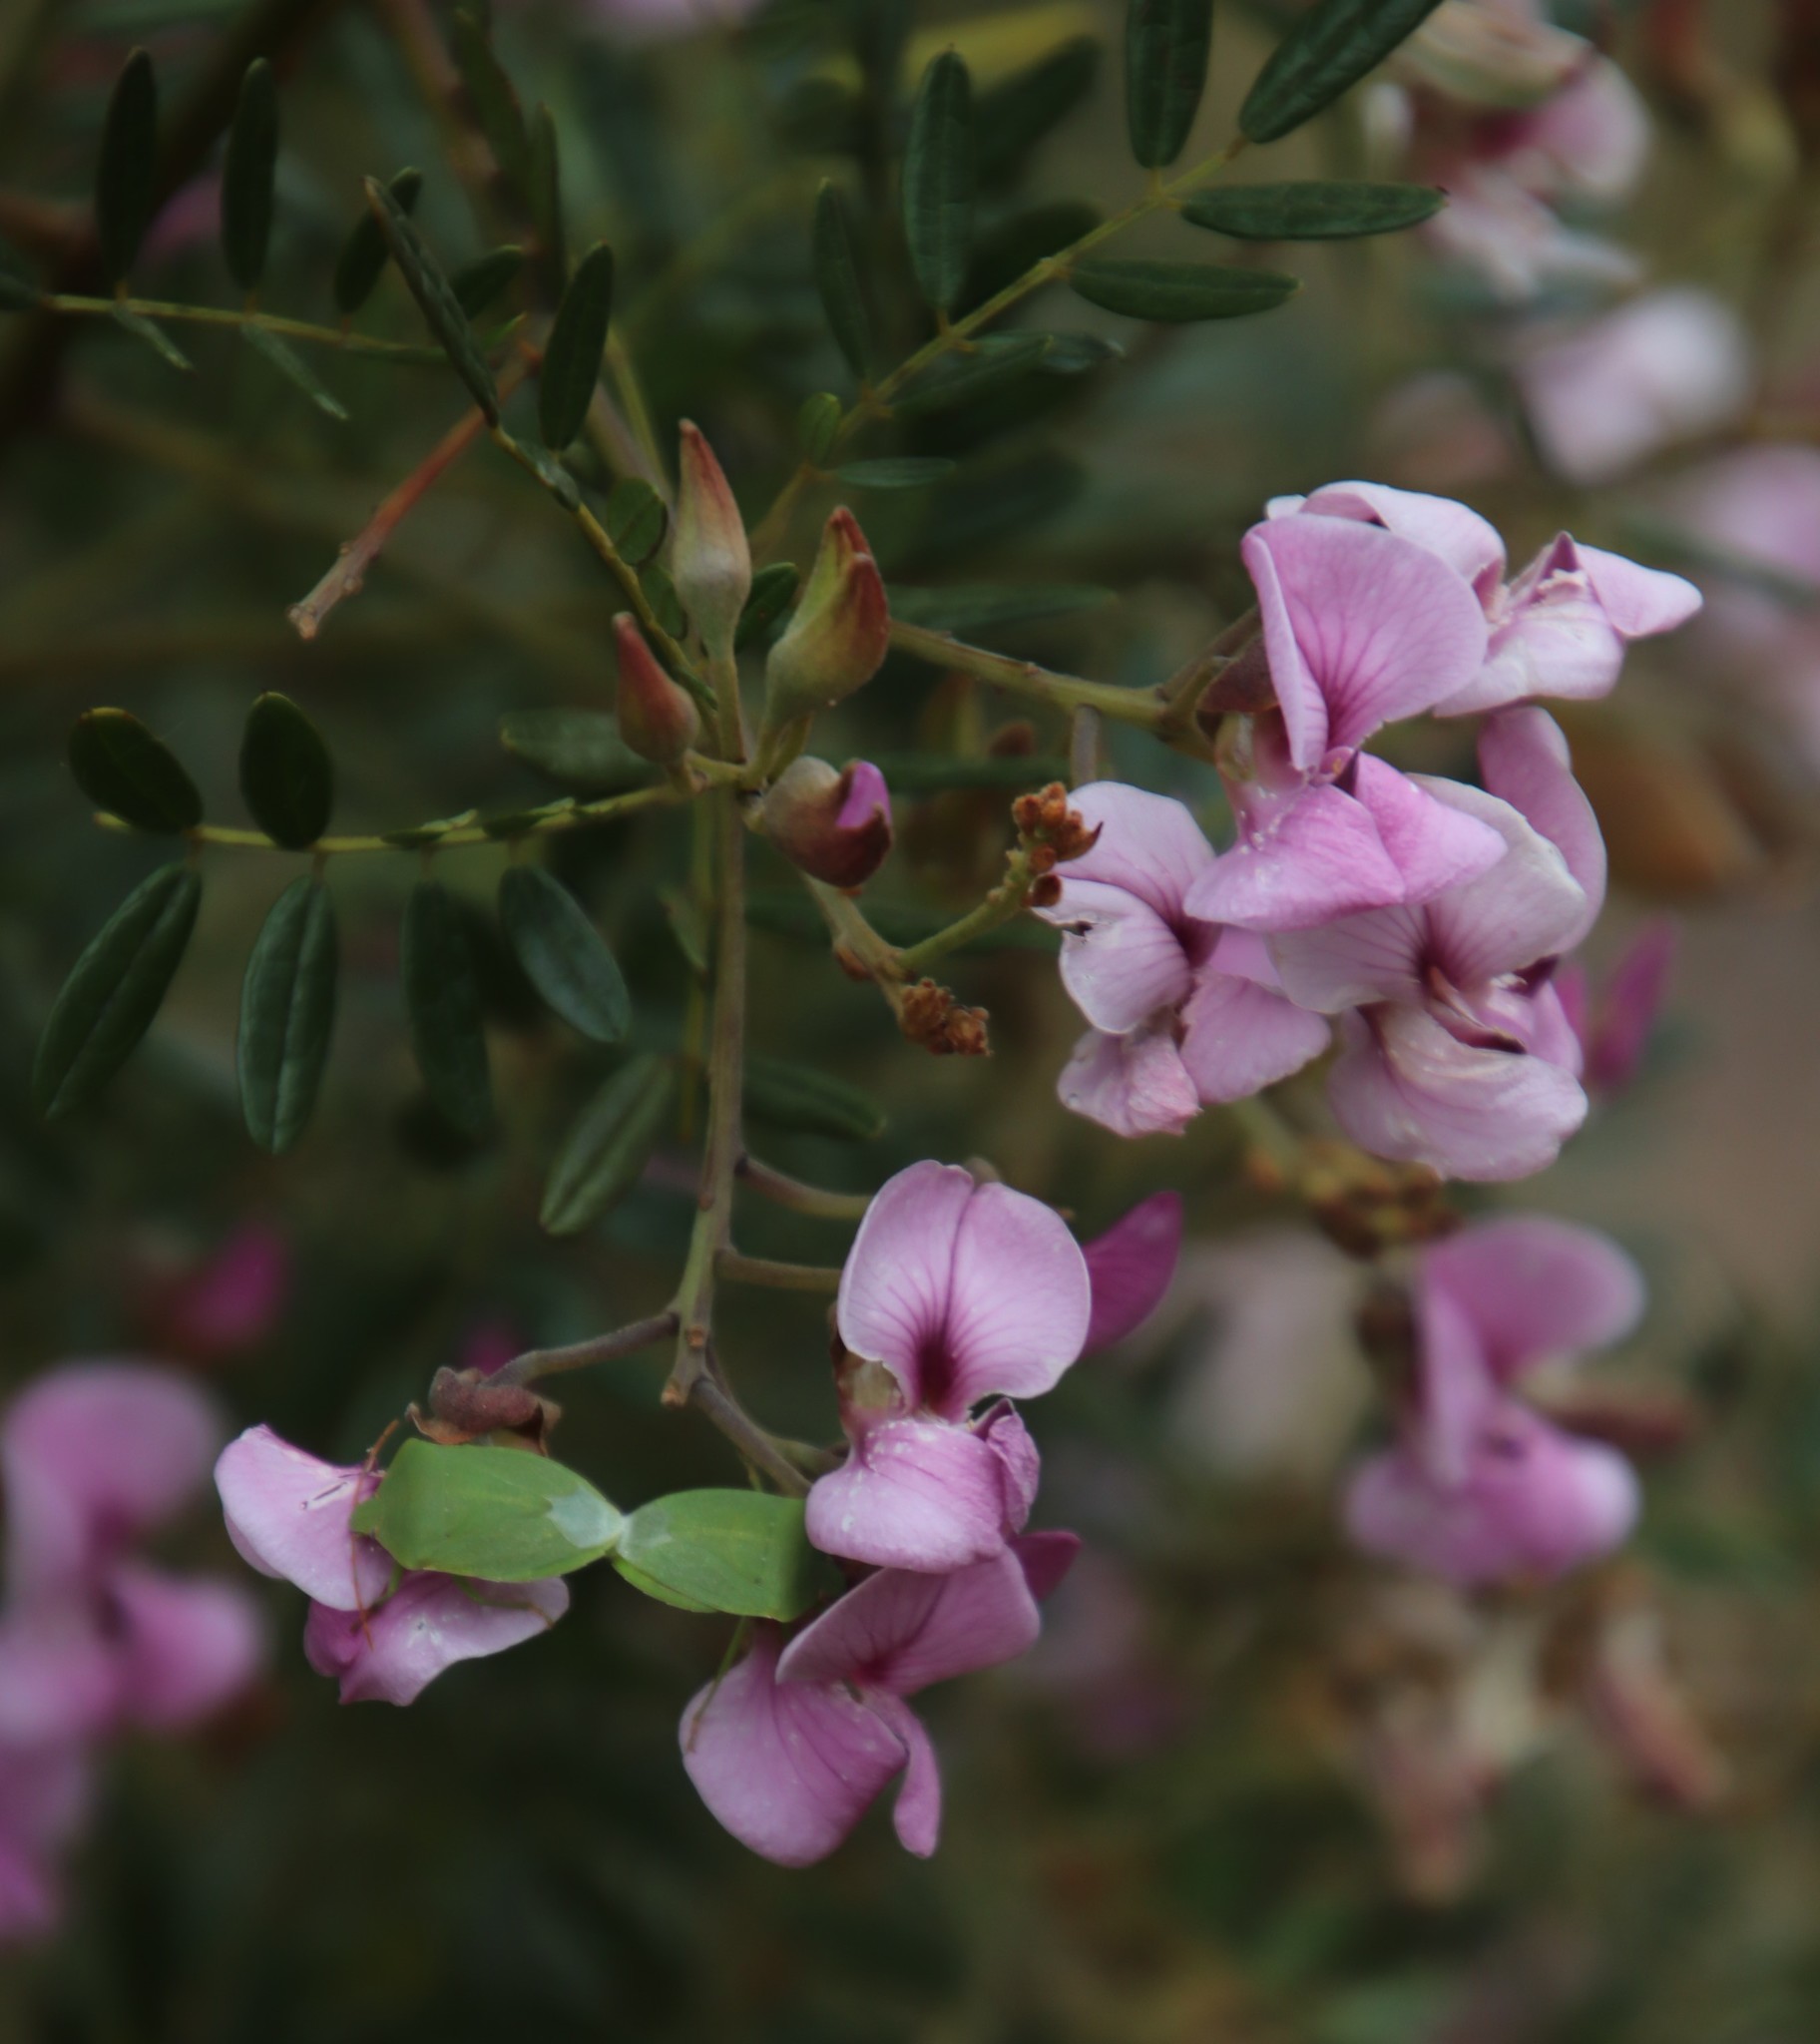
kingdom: Plantae
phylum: Tracheophyta
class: Magnoliopsida
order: Fabales
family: Fabaceae
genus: Virgilia
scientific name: Virgilia oroboides
